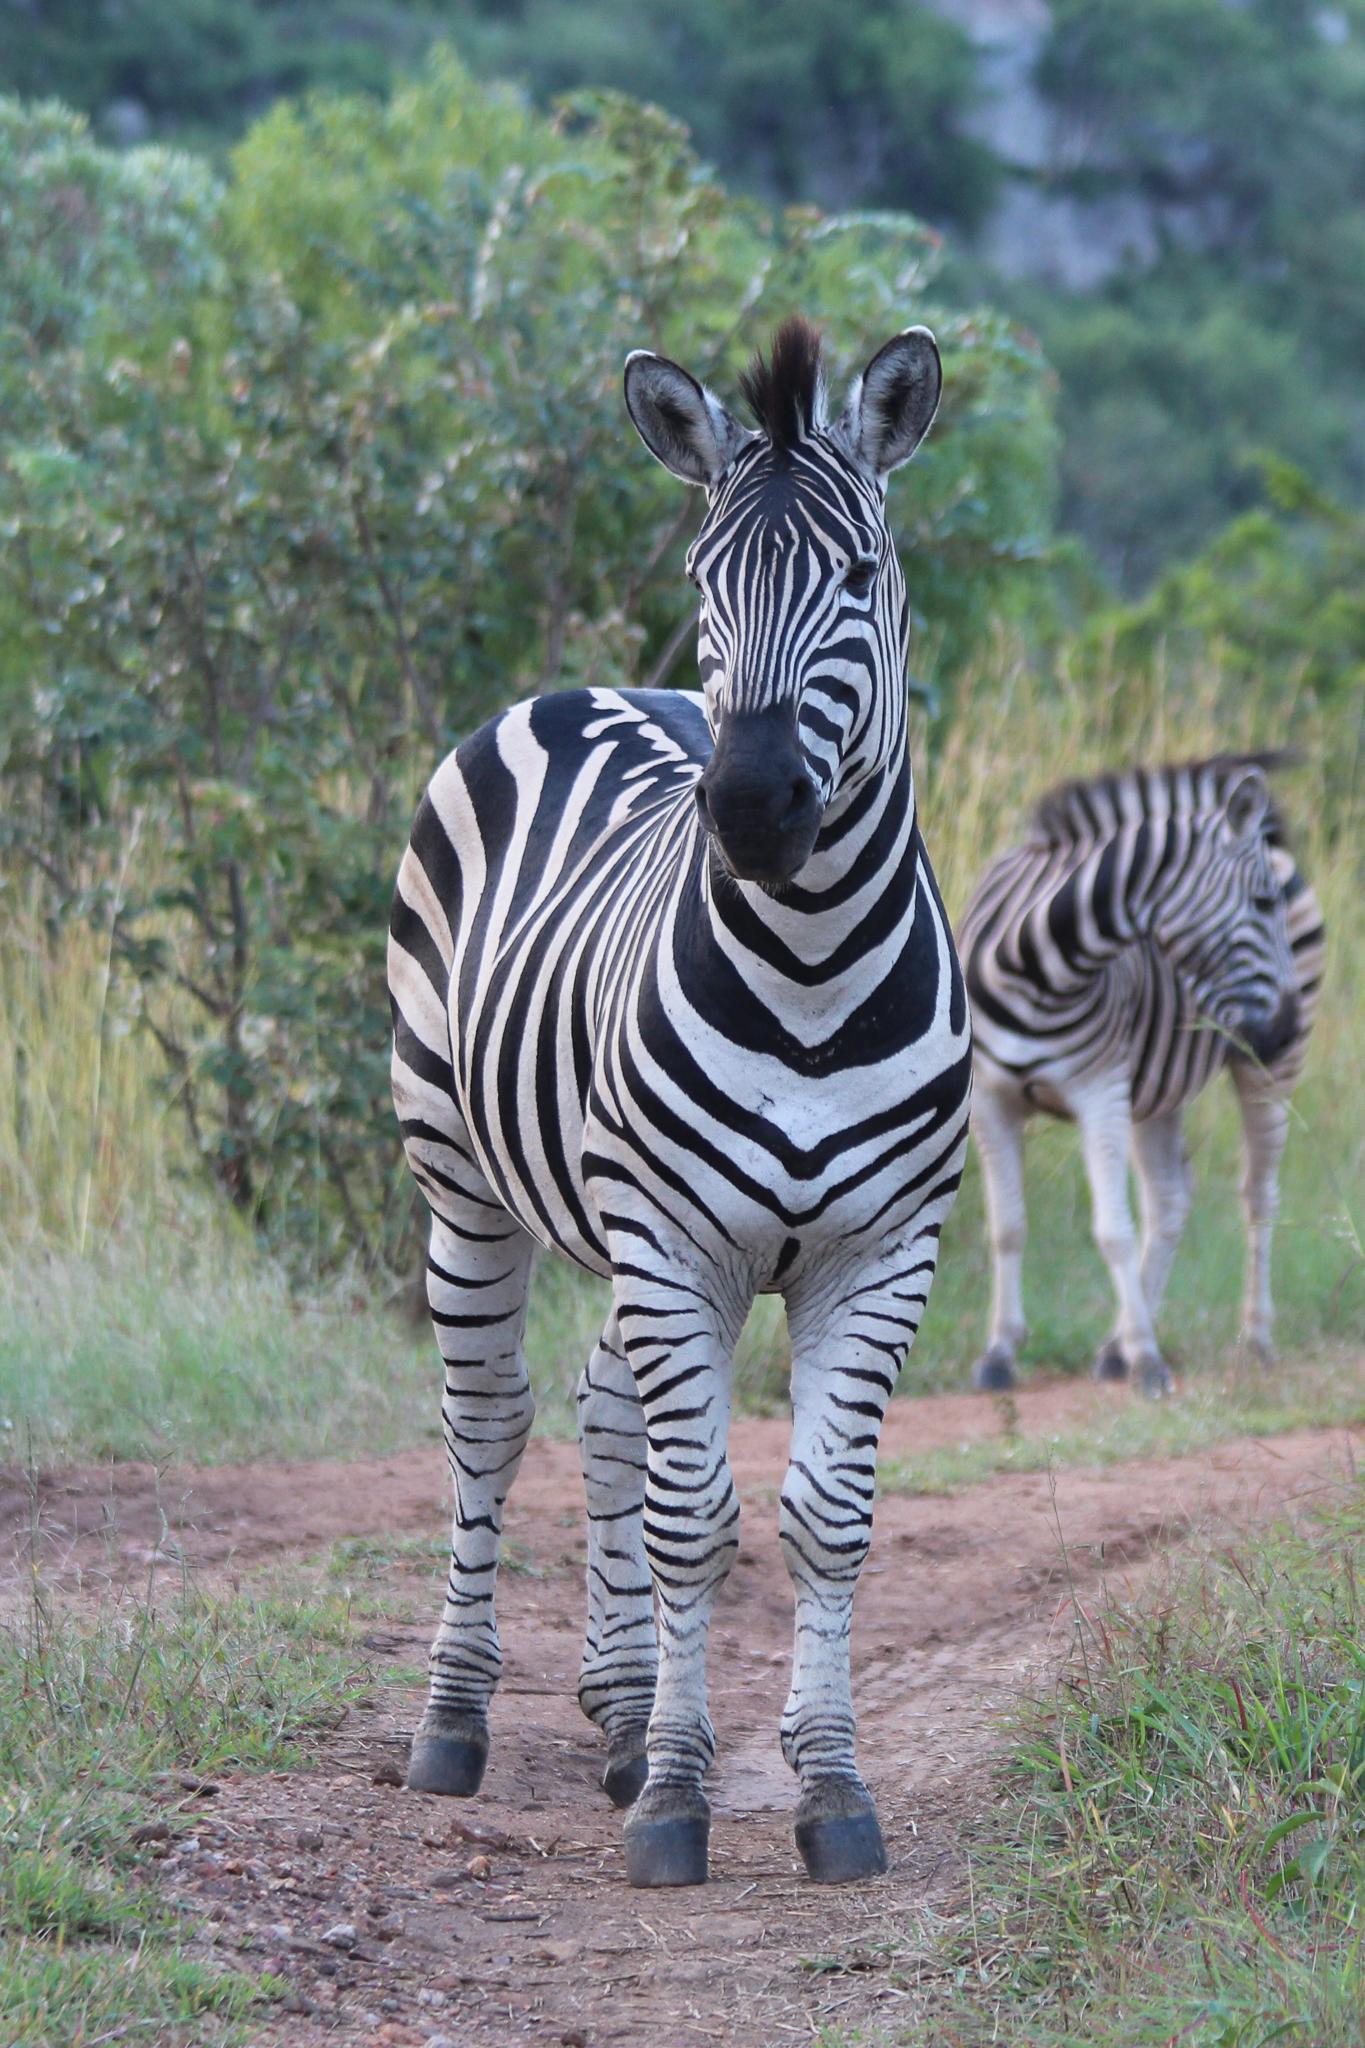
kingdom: Animalia
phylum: Chordata
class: Mammalia
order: Perissodactyla
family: Equidae
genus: Equus
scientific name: Equus quagga
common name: Plains zebra
